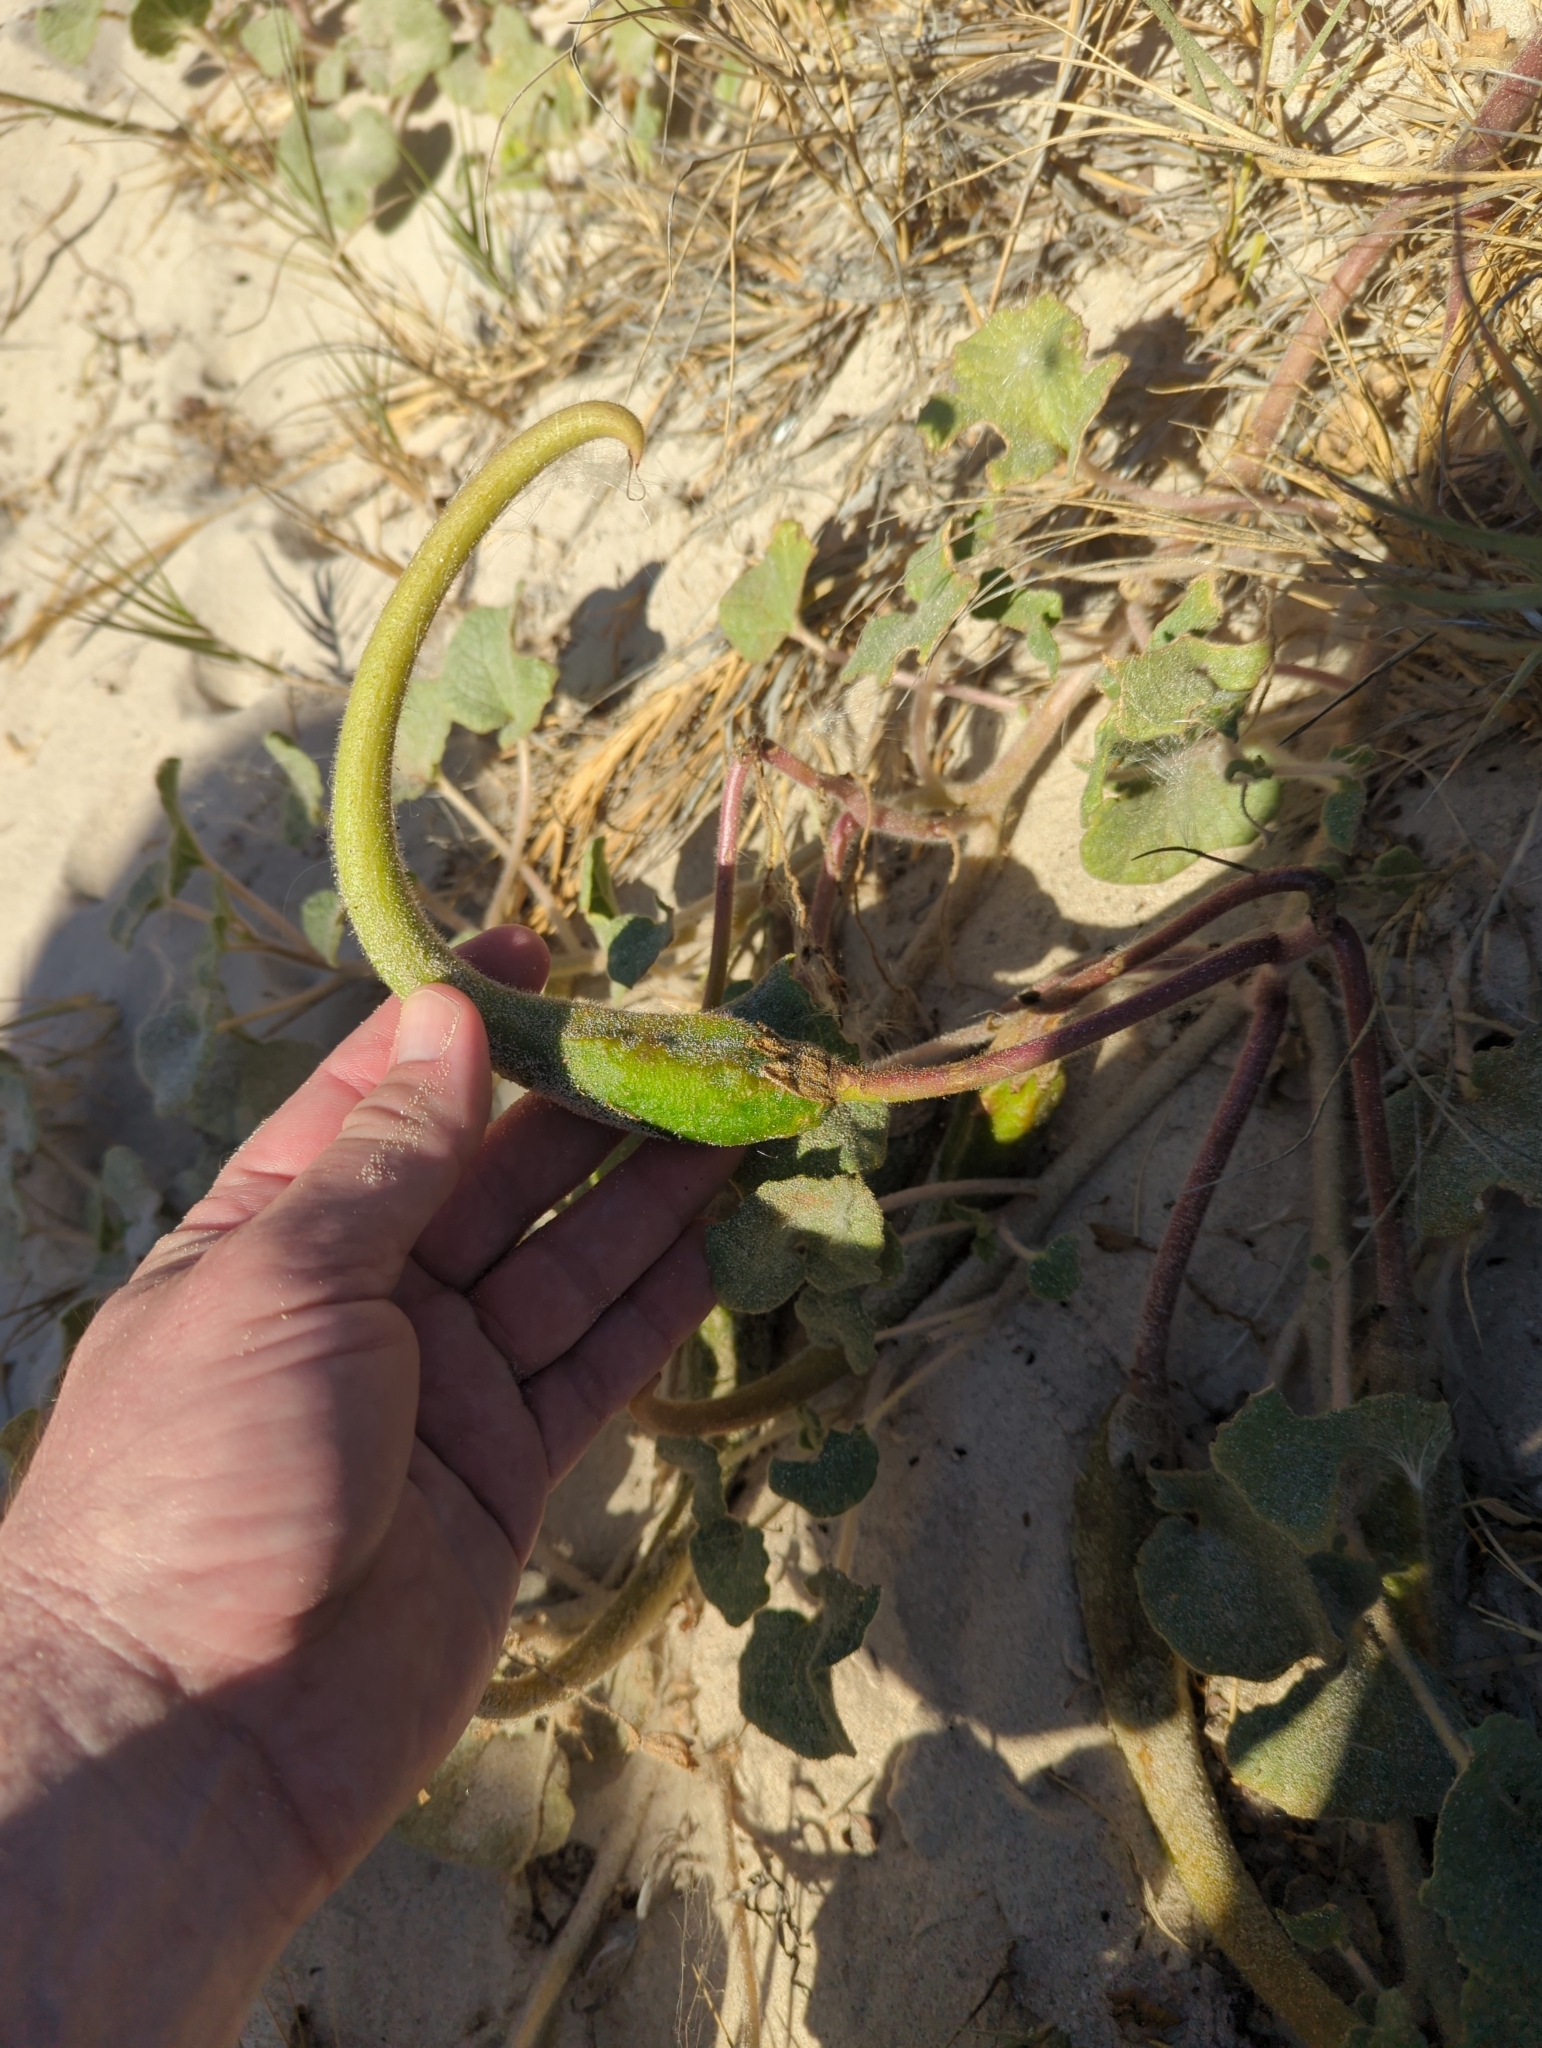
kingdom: Plantae
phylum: Tracheophyta
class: Magnoliopsida
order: Lamiales
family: Martyniaceae
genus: Proboscidea
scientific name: Proboscidea althaeifolia
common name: Desert unicorn-plant
